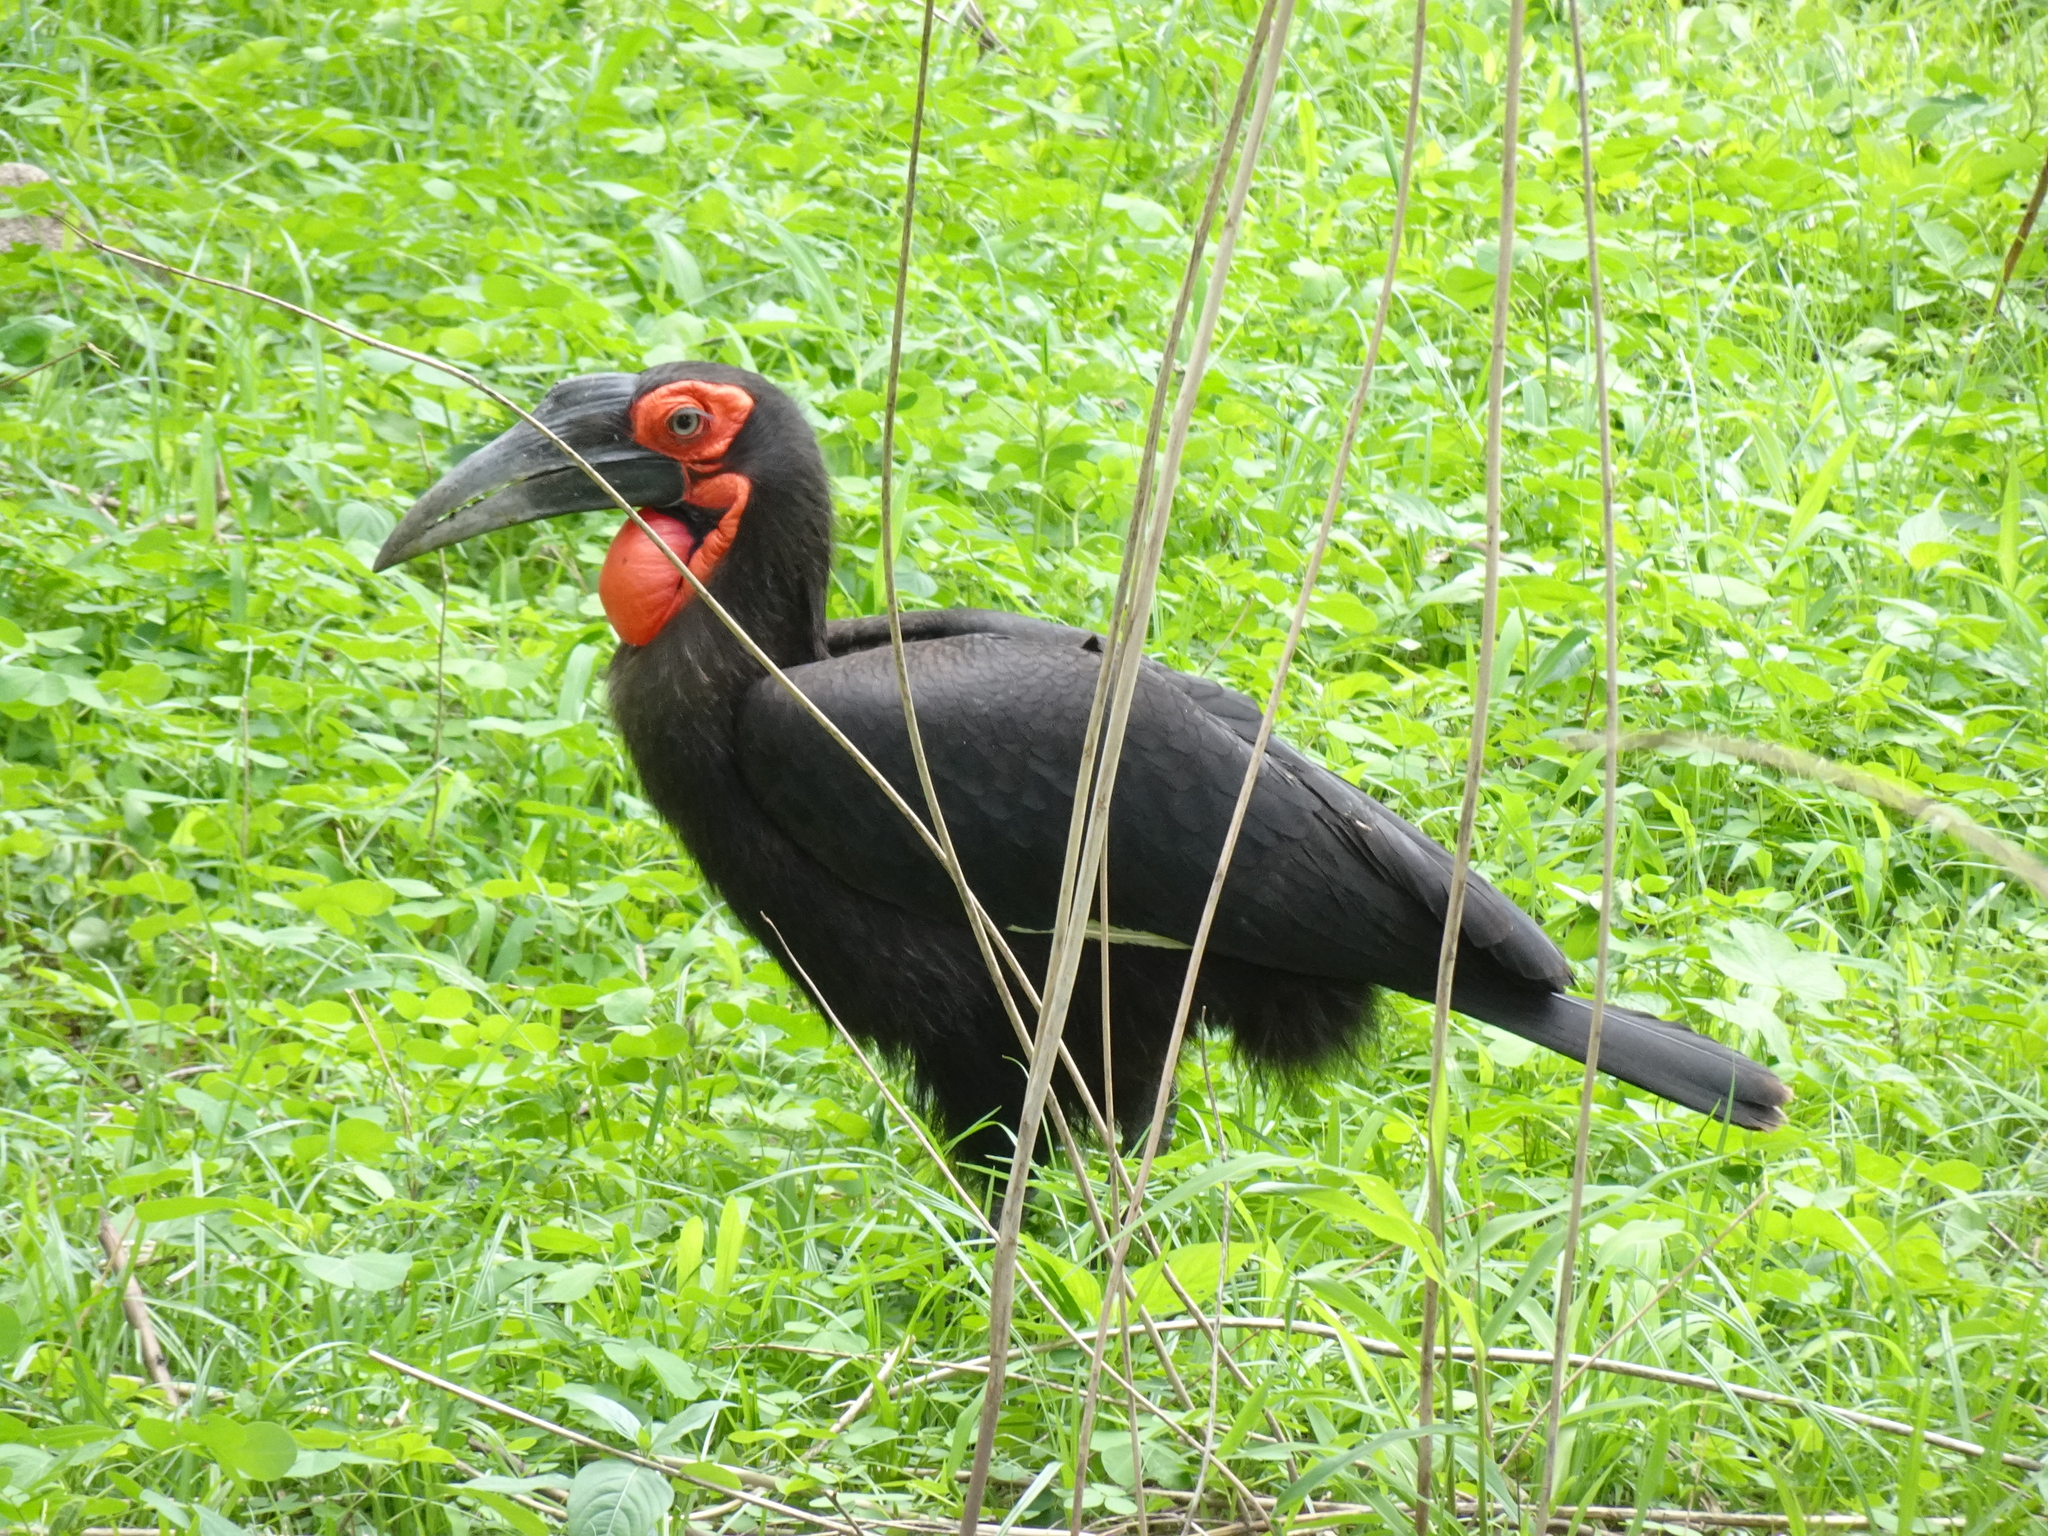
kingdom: Animalia
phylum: Chordata
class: Aves
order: Bucerotiformes
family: Bucorvidae
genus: Bucorvus
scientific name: Bucorvus leadbeateri
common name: Southern ground-hornbill
